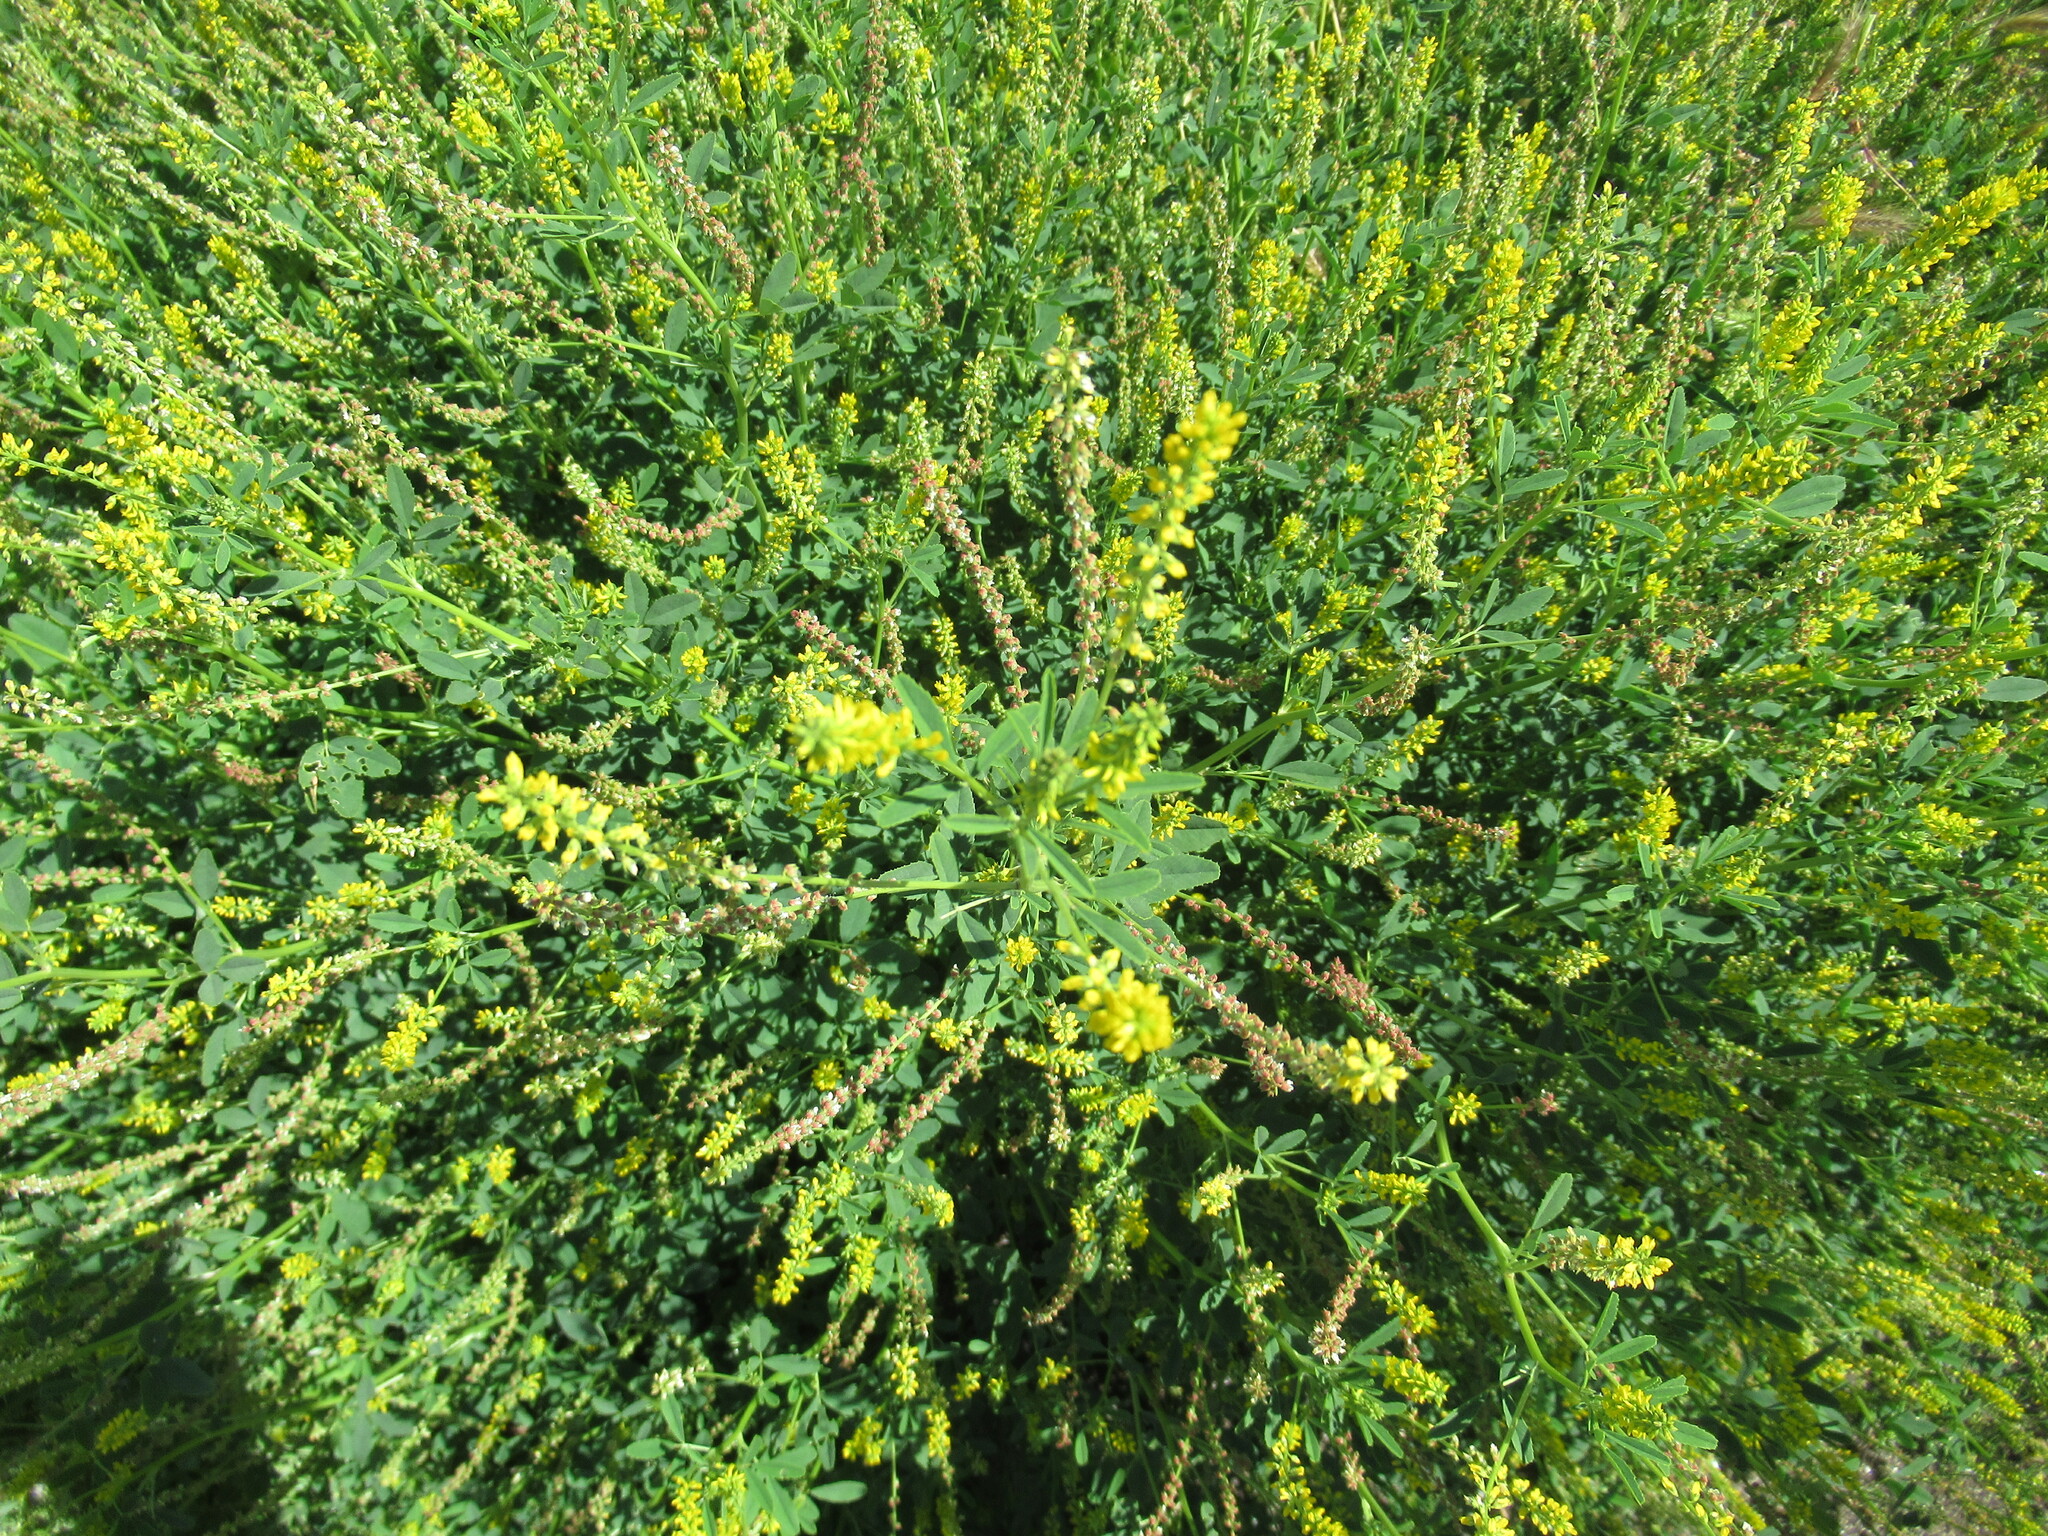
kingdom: Plantae
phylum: Tracheophyta
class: Magnoliopsida
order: Fabales
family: Fabaceae
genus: Melilotus
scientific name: Melilotus indicus
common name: Small melilot
